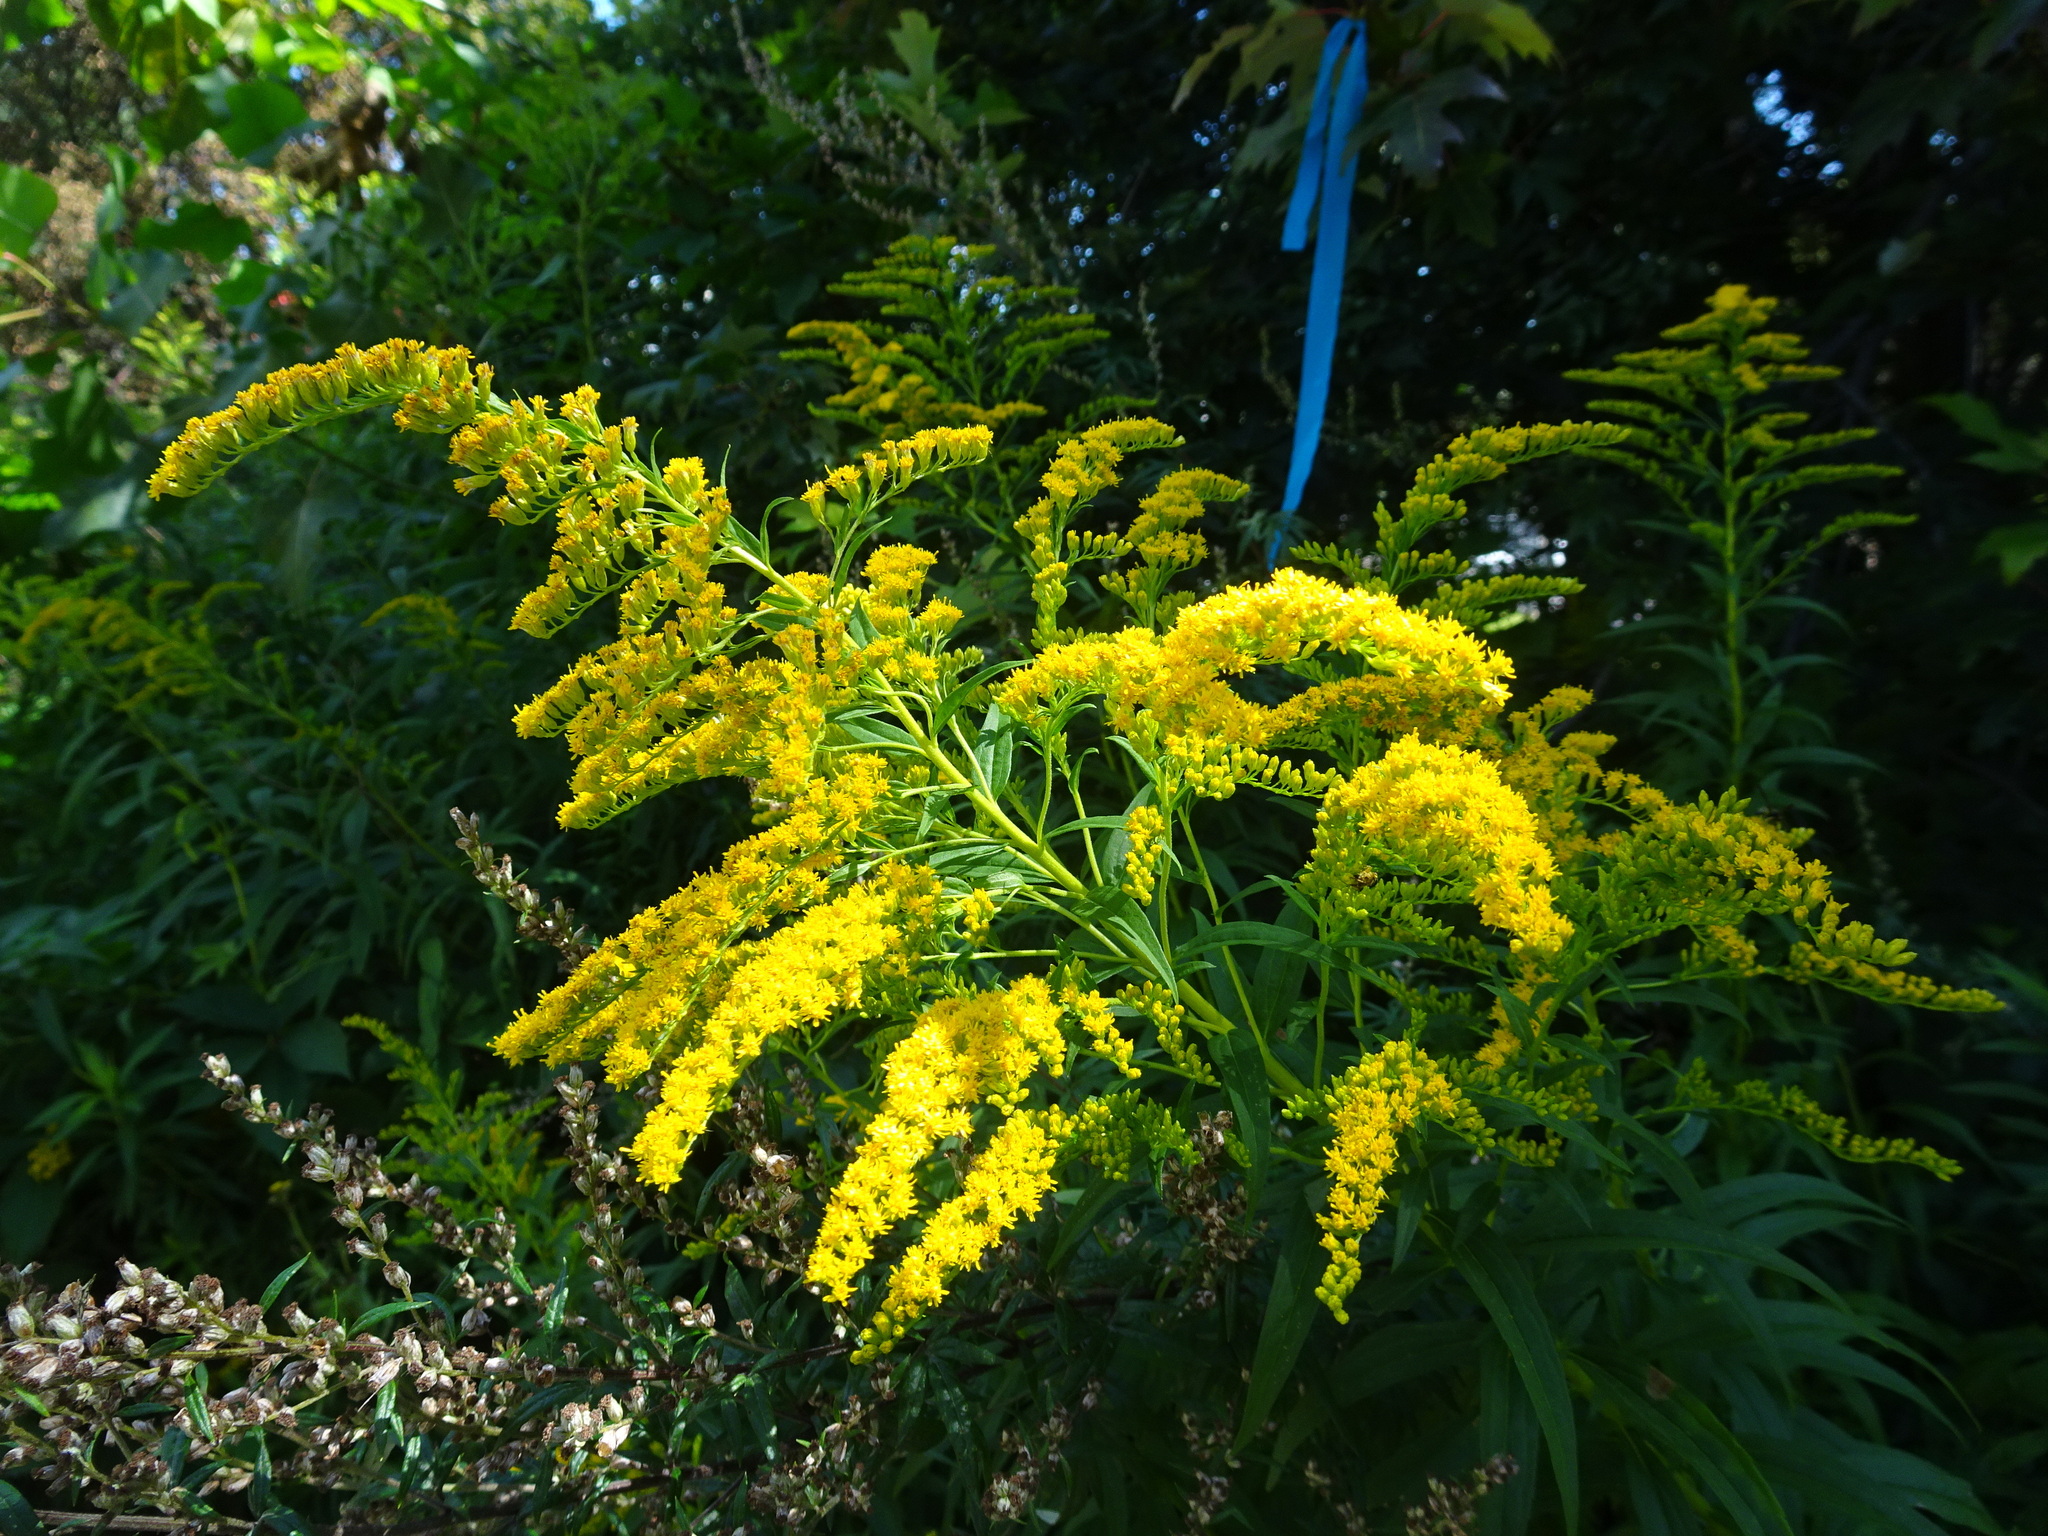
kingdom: Plantae
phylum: Tracheophyta
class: Magnoliopsida
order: Asterales
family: Asteraceae
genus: Solidago
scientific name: Solidago canadensis
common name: Canada goldenrod
